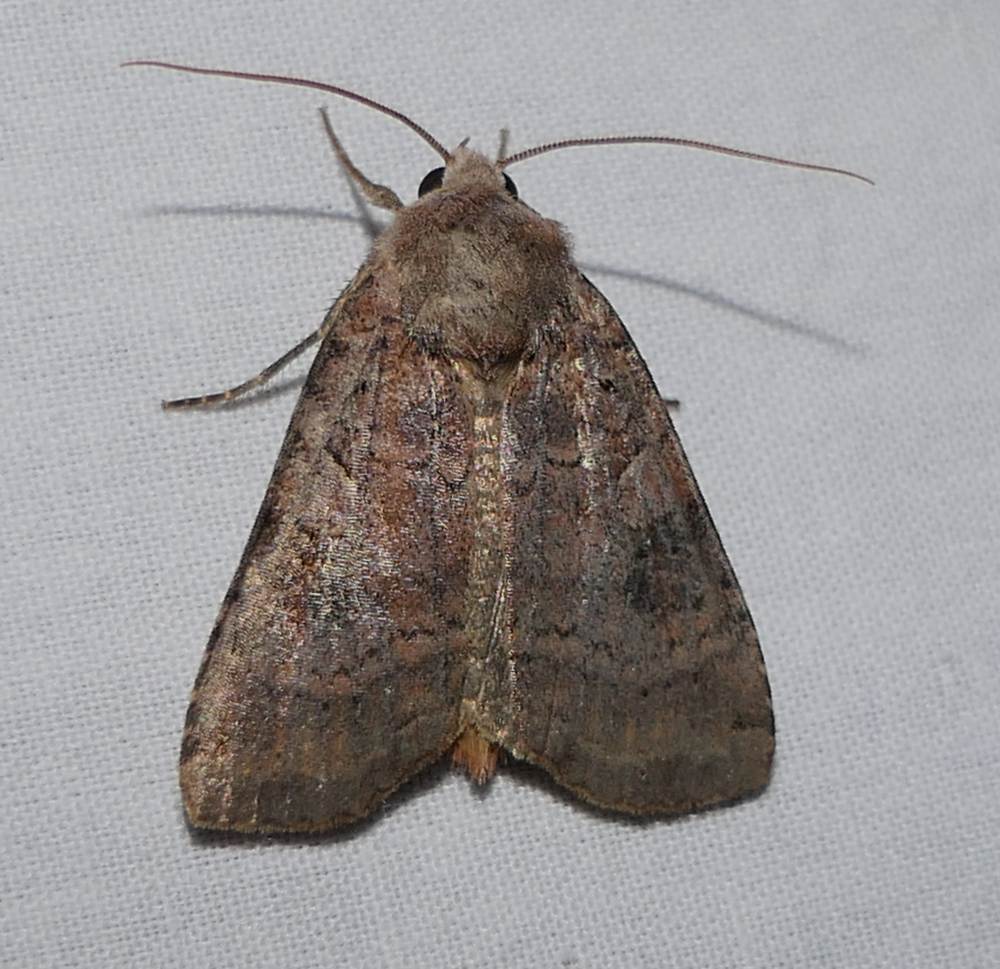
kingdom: Animalia
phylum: Arthropoda
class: Insecta
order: Lepidoptera
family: Noctuidae
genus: Xestia
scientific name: Xestia smithii
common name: Smith's dart
